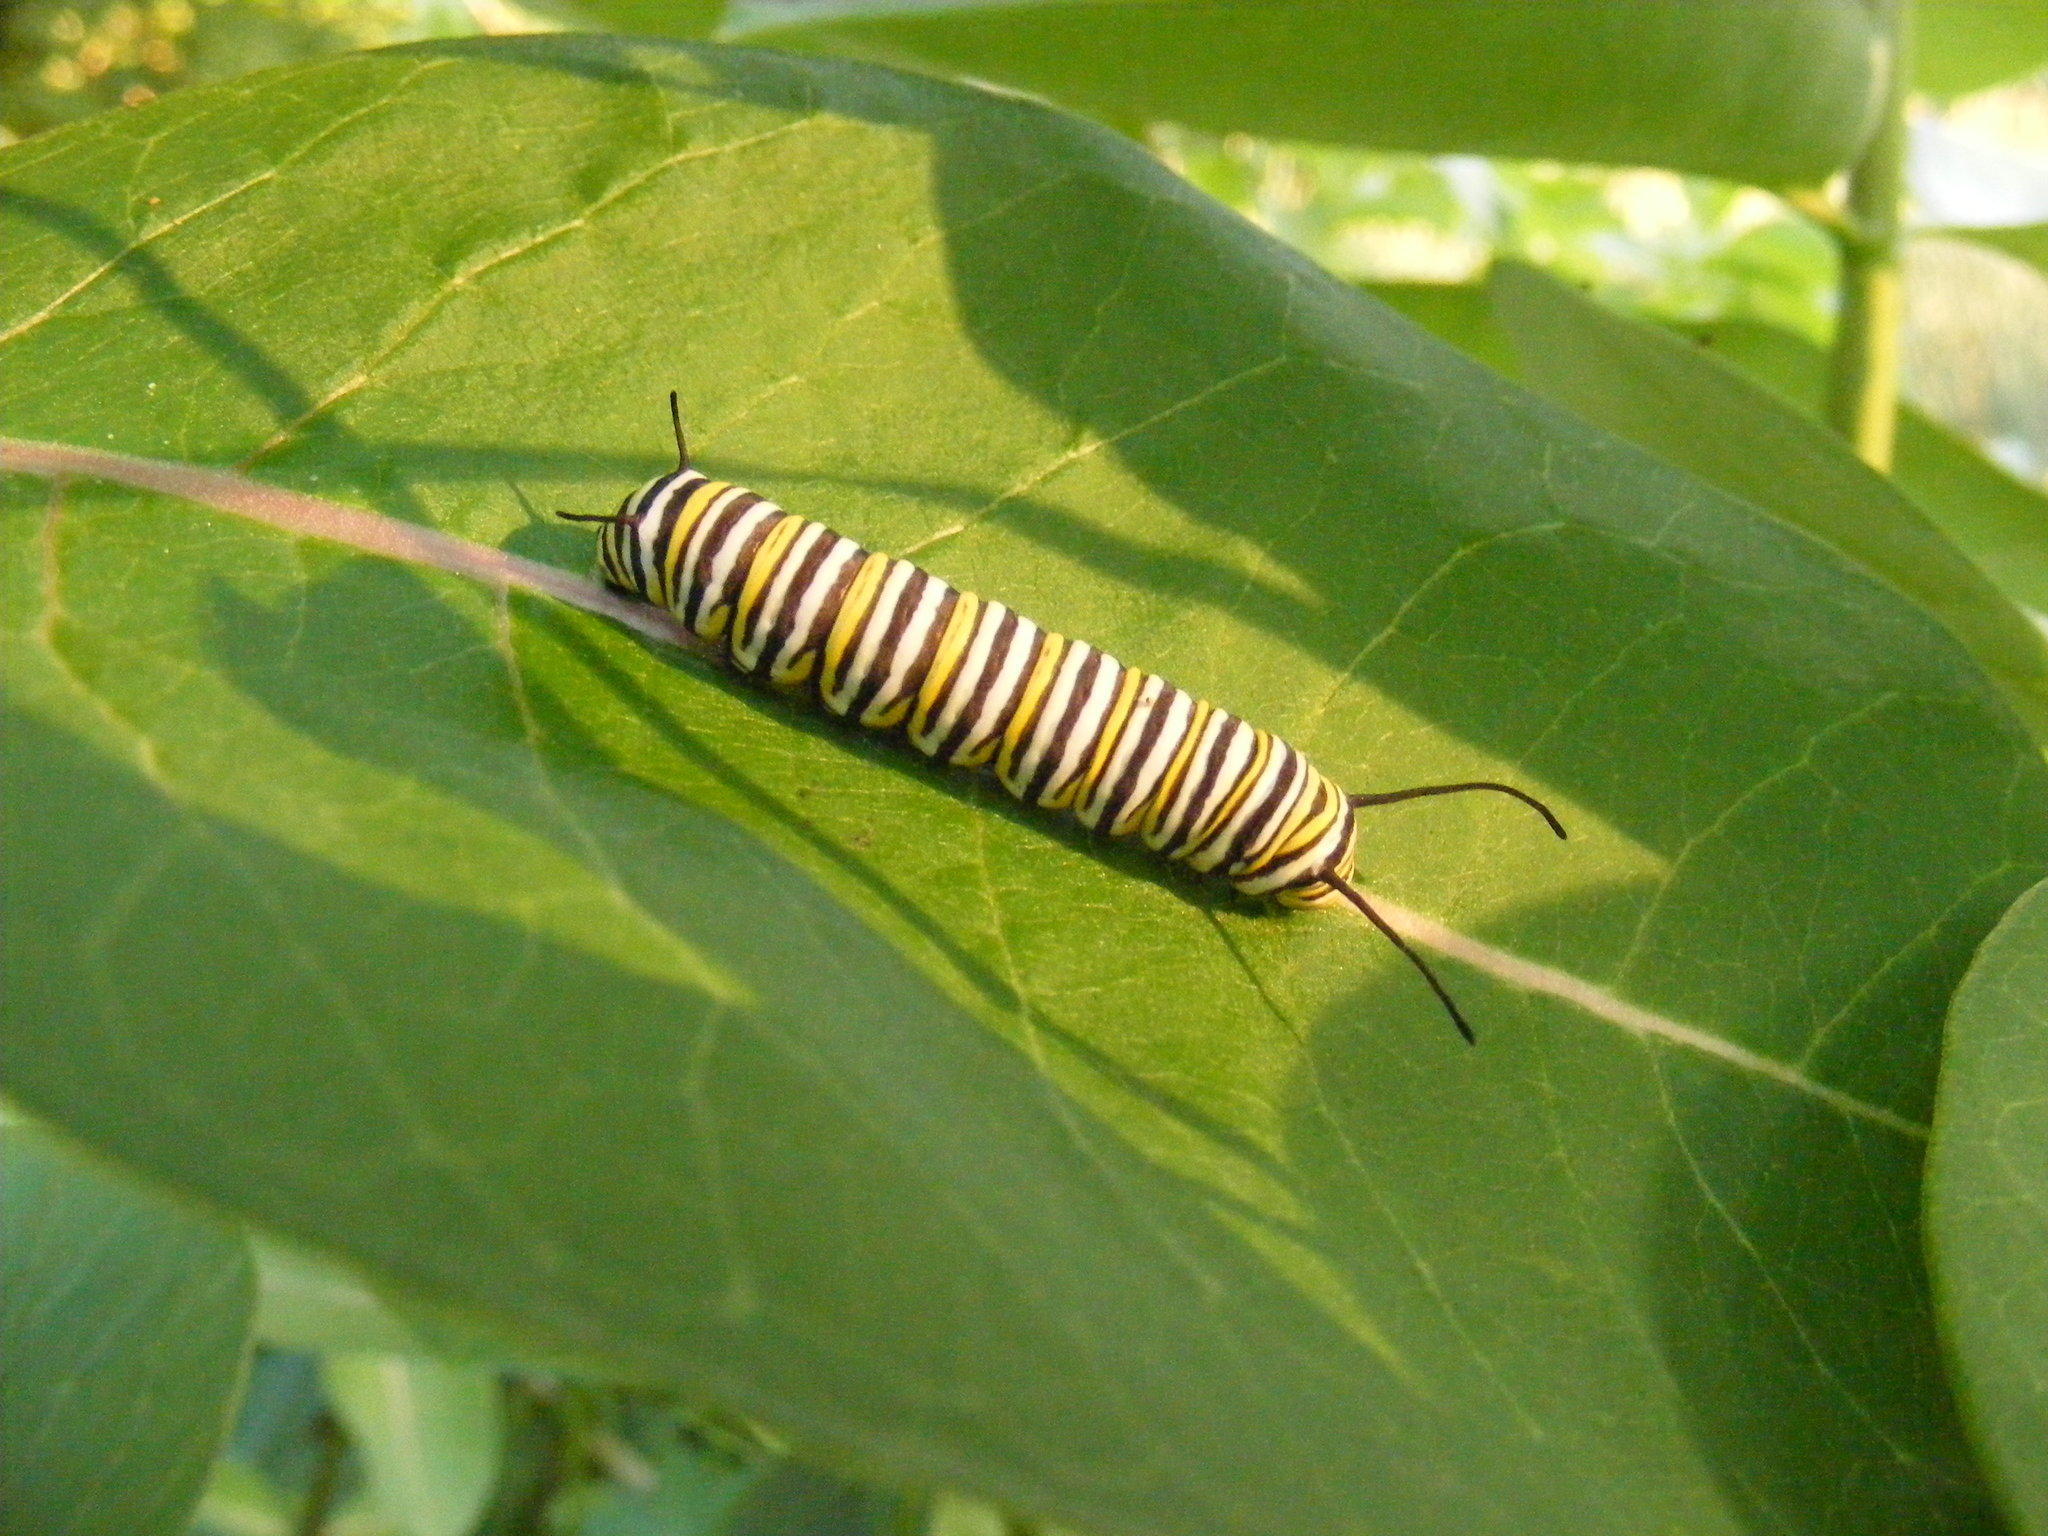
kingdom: Animalia
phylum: Arthropoda
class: Insecta
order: Lepidoptera
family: Nymphalidae
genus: Danaus
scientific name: Danaus plexippus
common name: Monarch
